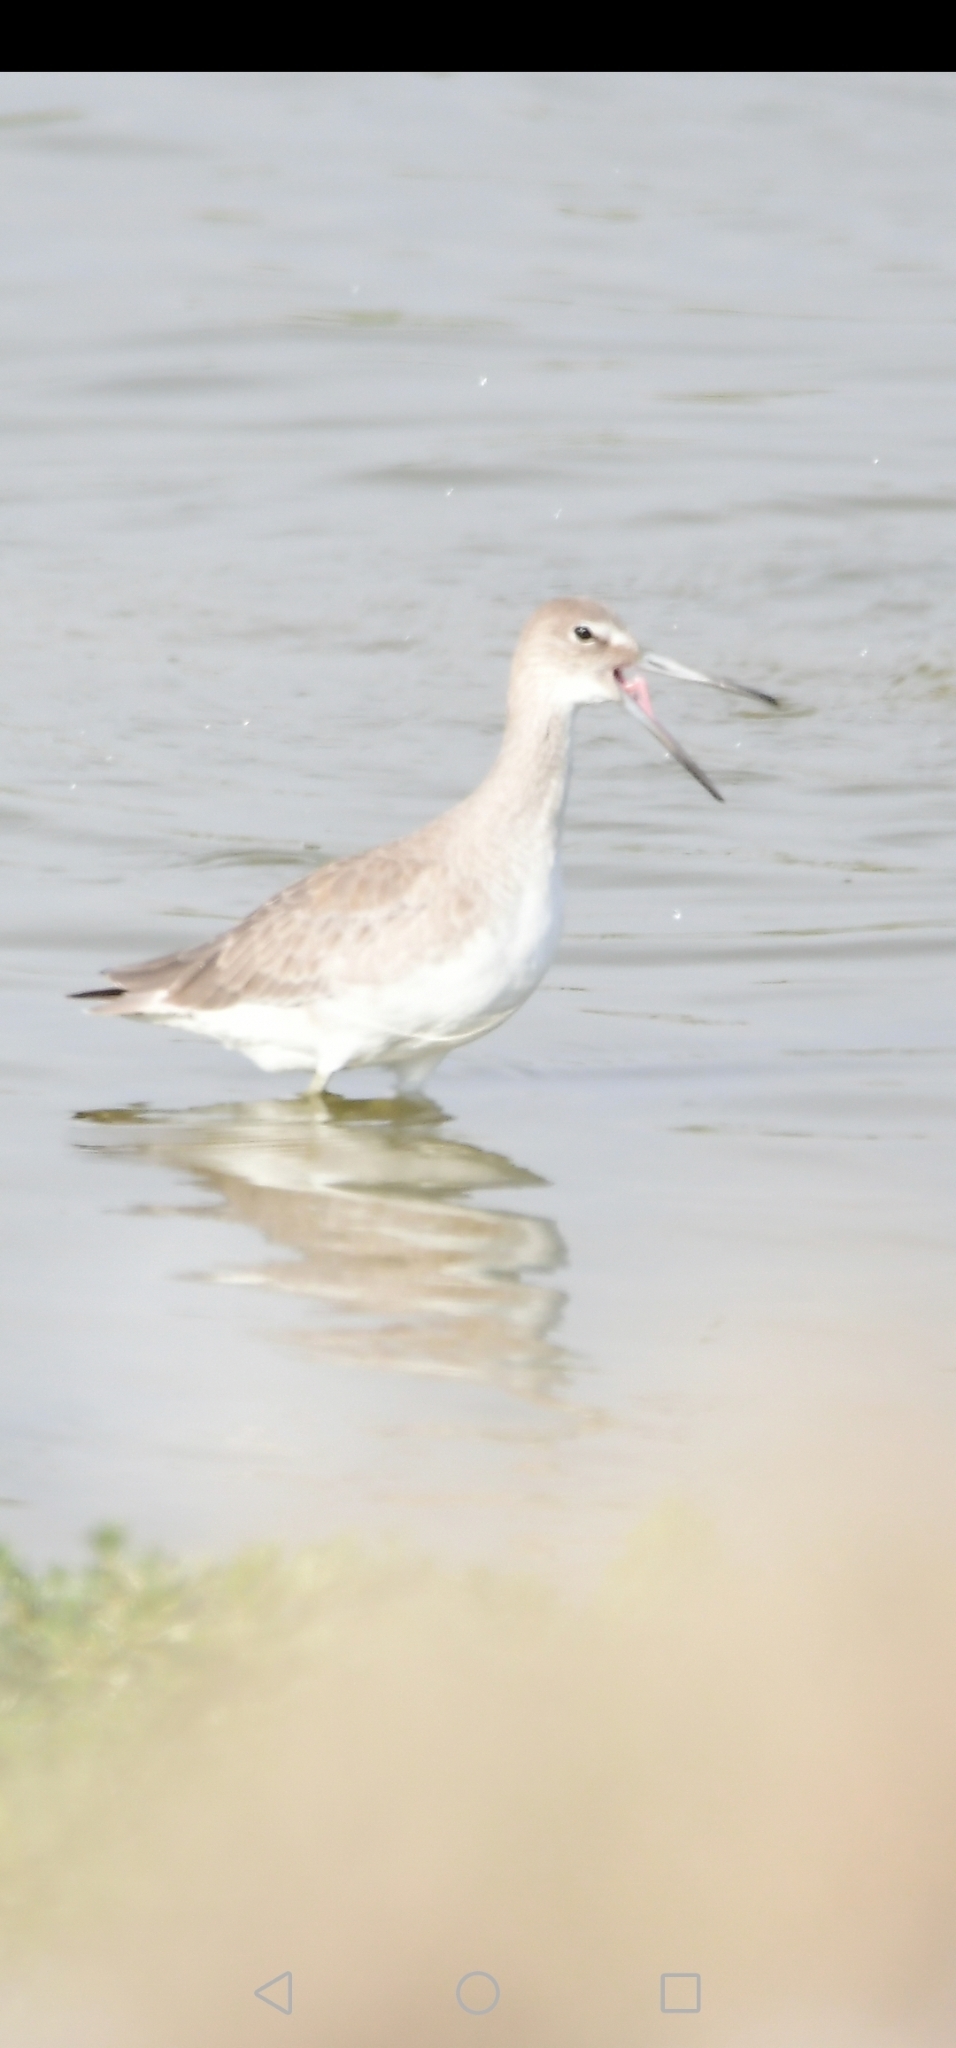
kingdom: Animalia
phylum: Chordata
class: Aves
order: Charadriiformes
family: Scolopacidae
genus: Tringa
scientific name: Tringa semipalmata
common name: Willet
